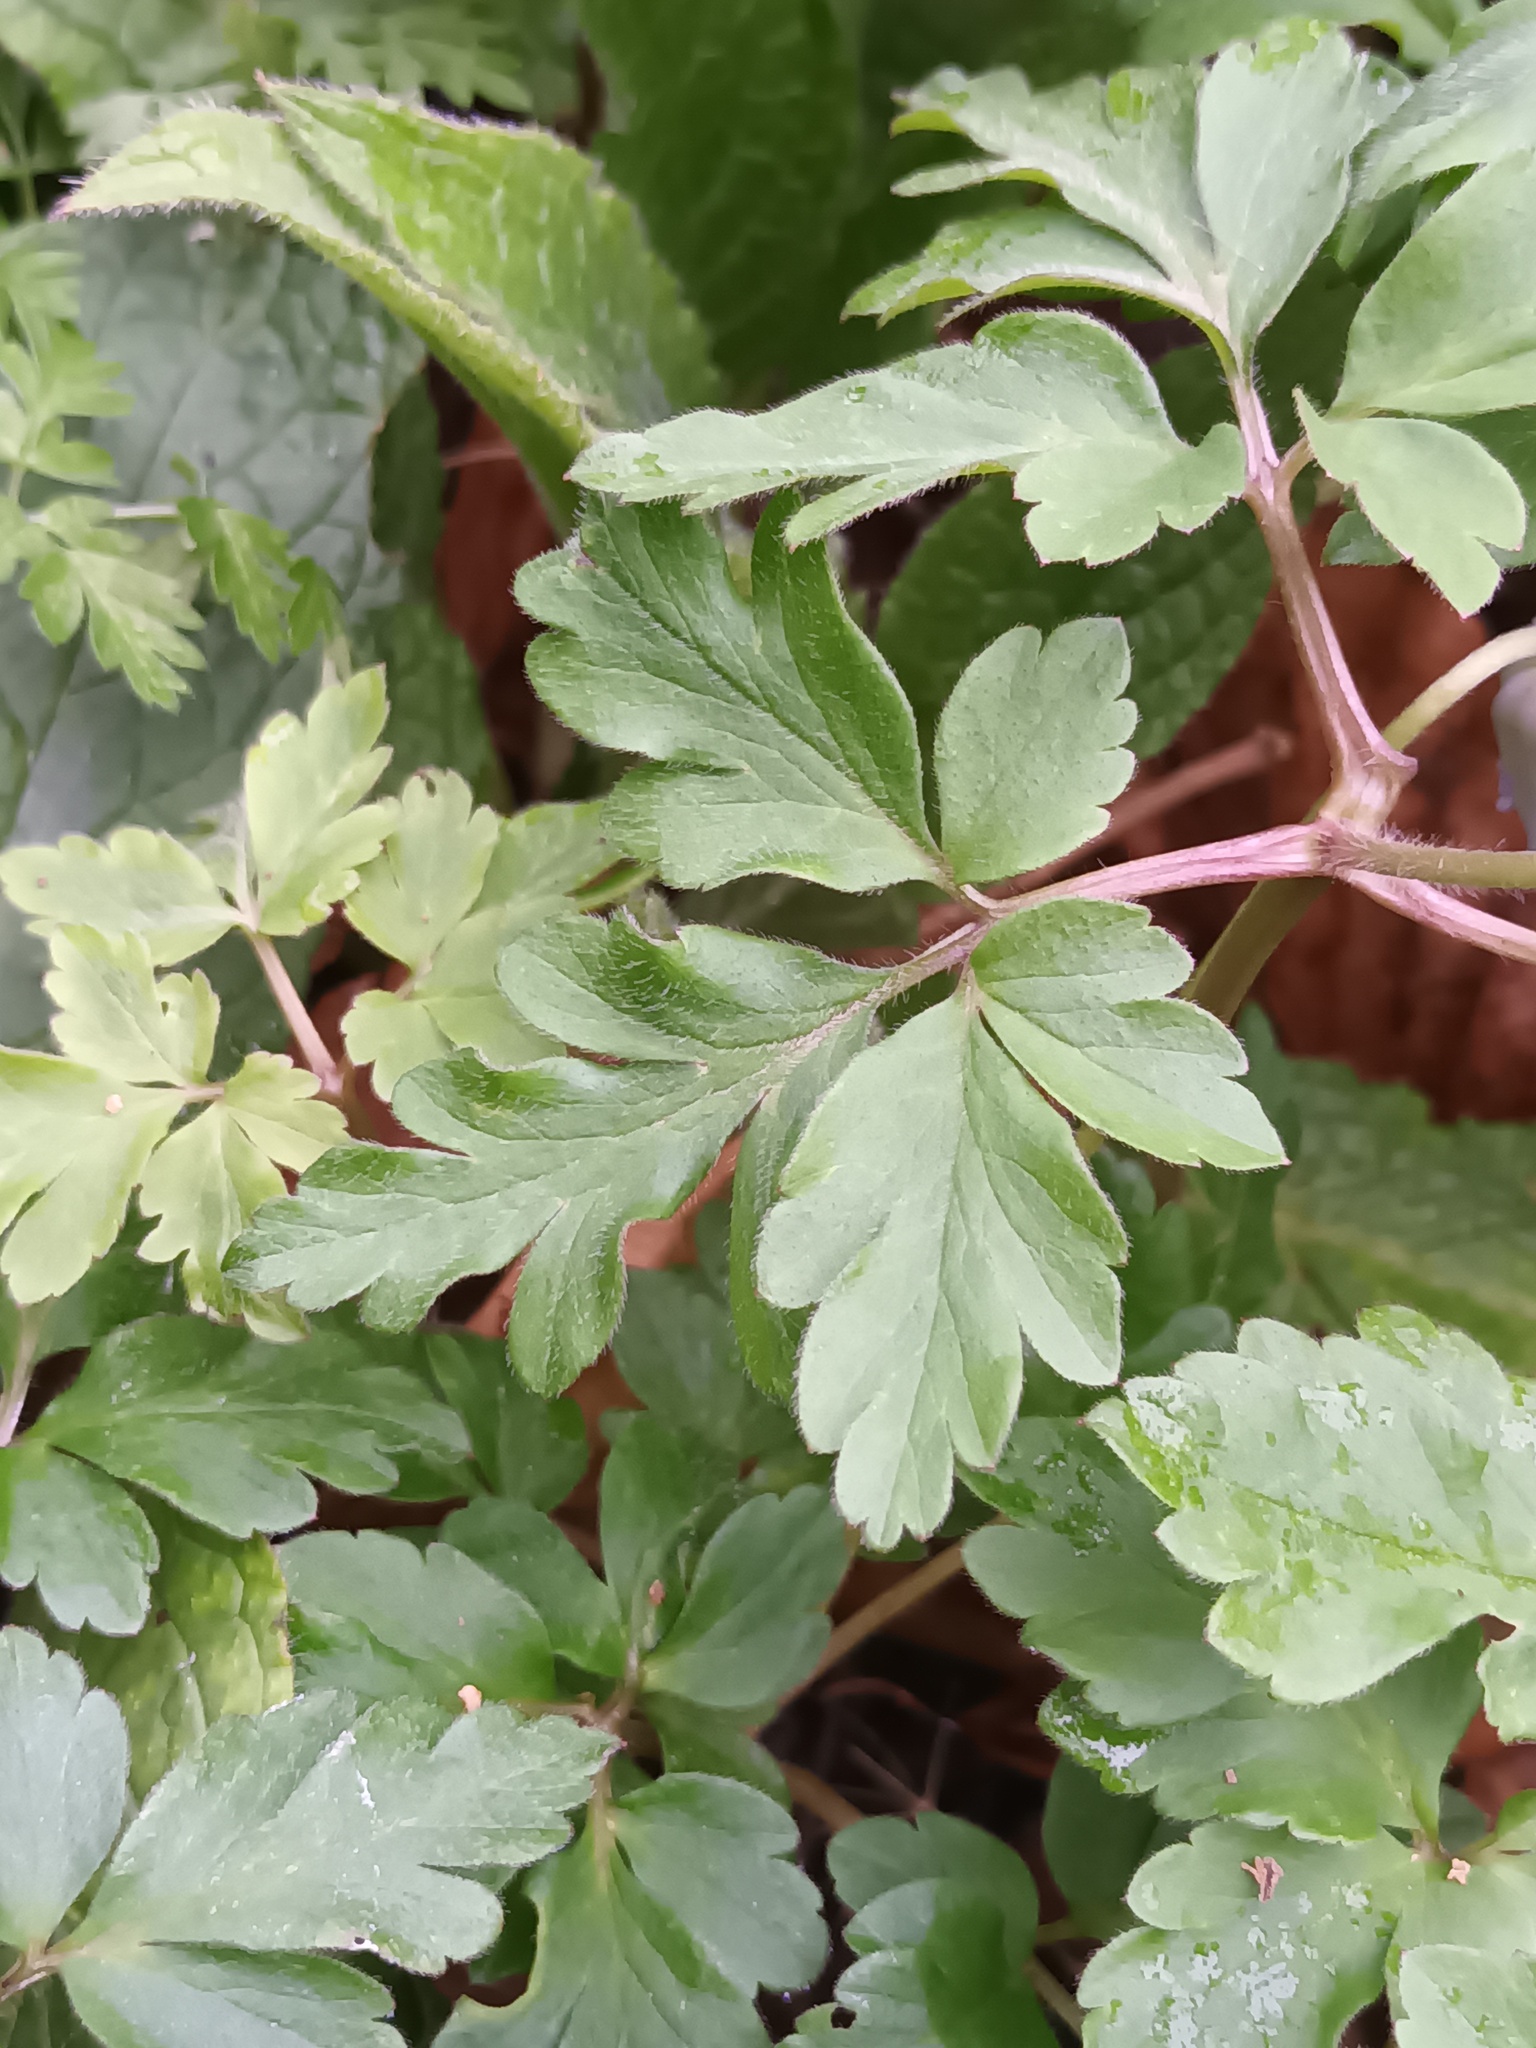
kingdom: Plantae
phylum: Tracheophyta
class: Magnoliopsida
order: Ranunculales
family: Ranunculaceae
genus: Anemone
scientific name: Anemone apennina
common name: Blue anemone
